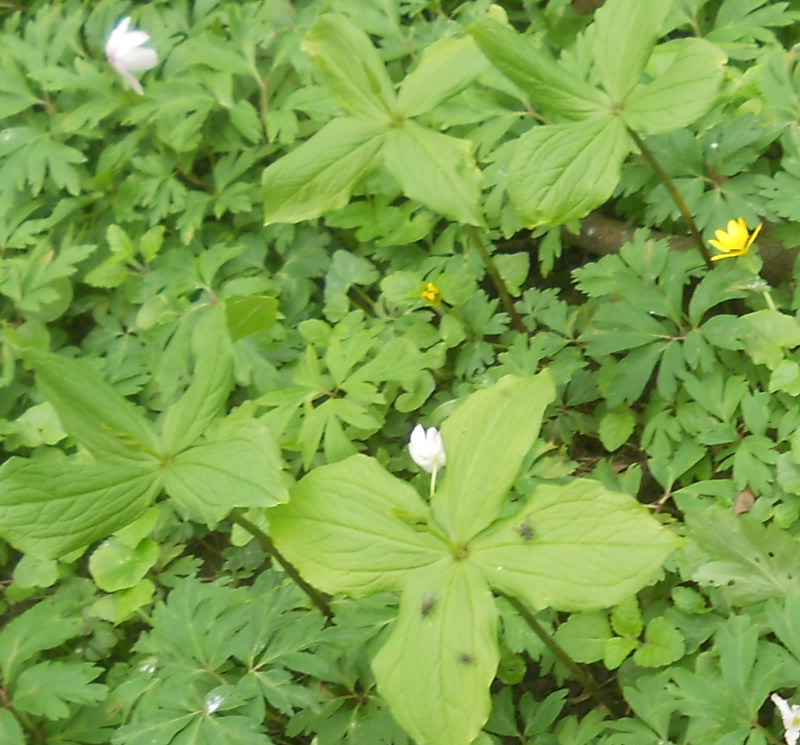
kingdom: Plantae
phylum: Tracheophyta
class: Liliopsida
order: Liliales
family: Melanthiaceae
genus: Paris
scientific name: Paris quadrifolia
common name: Herb-paris
